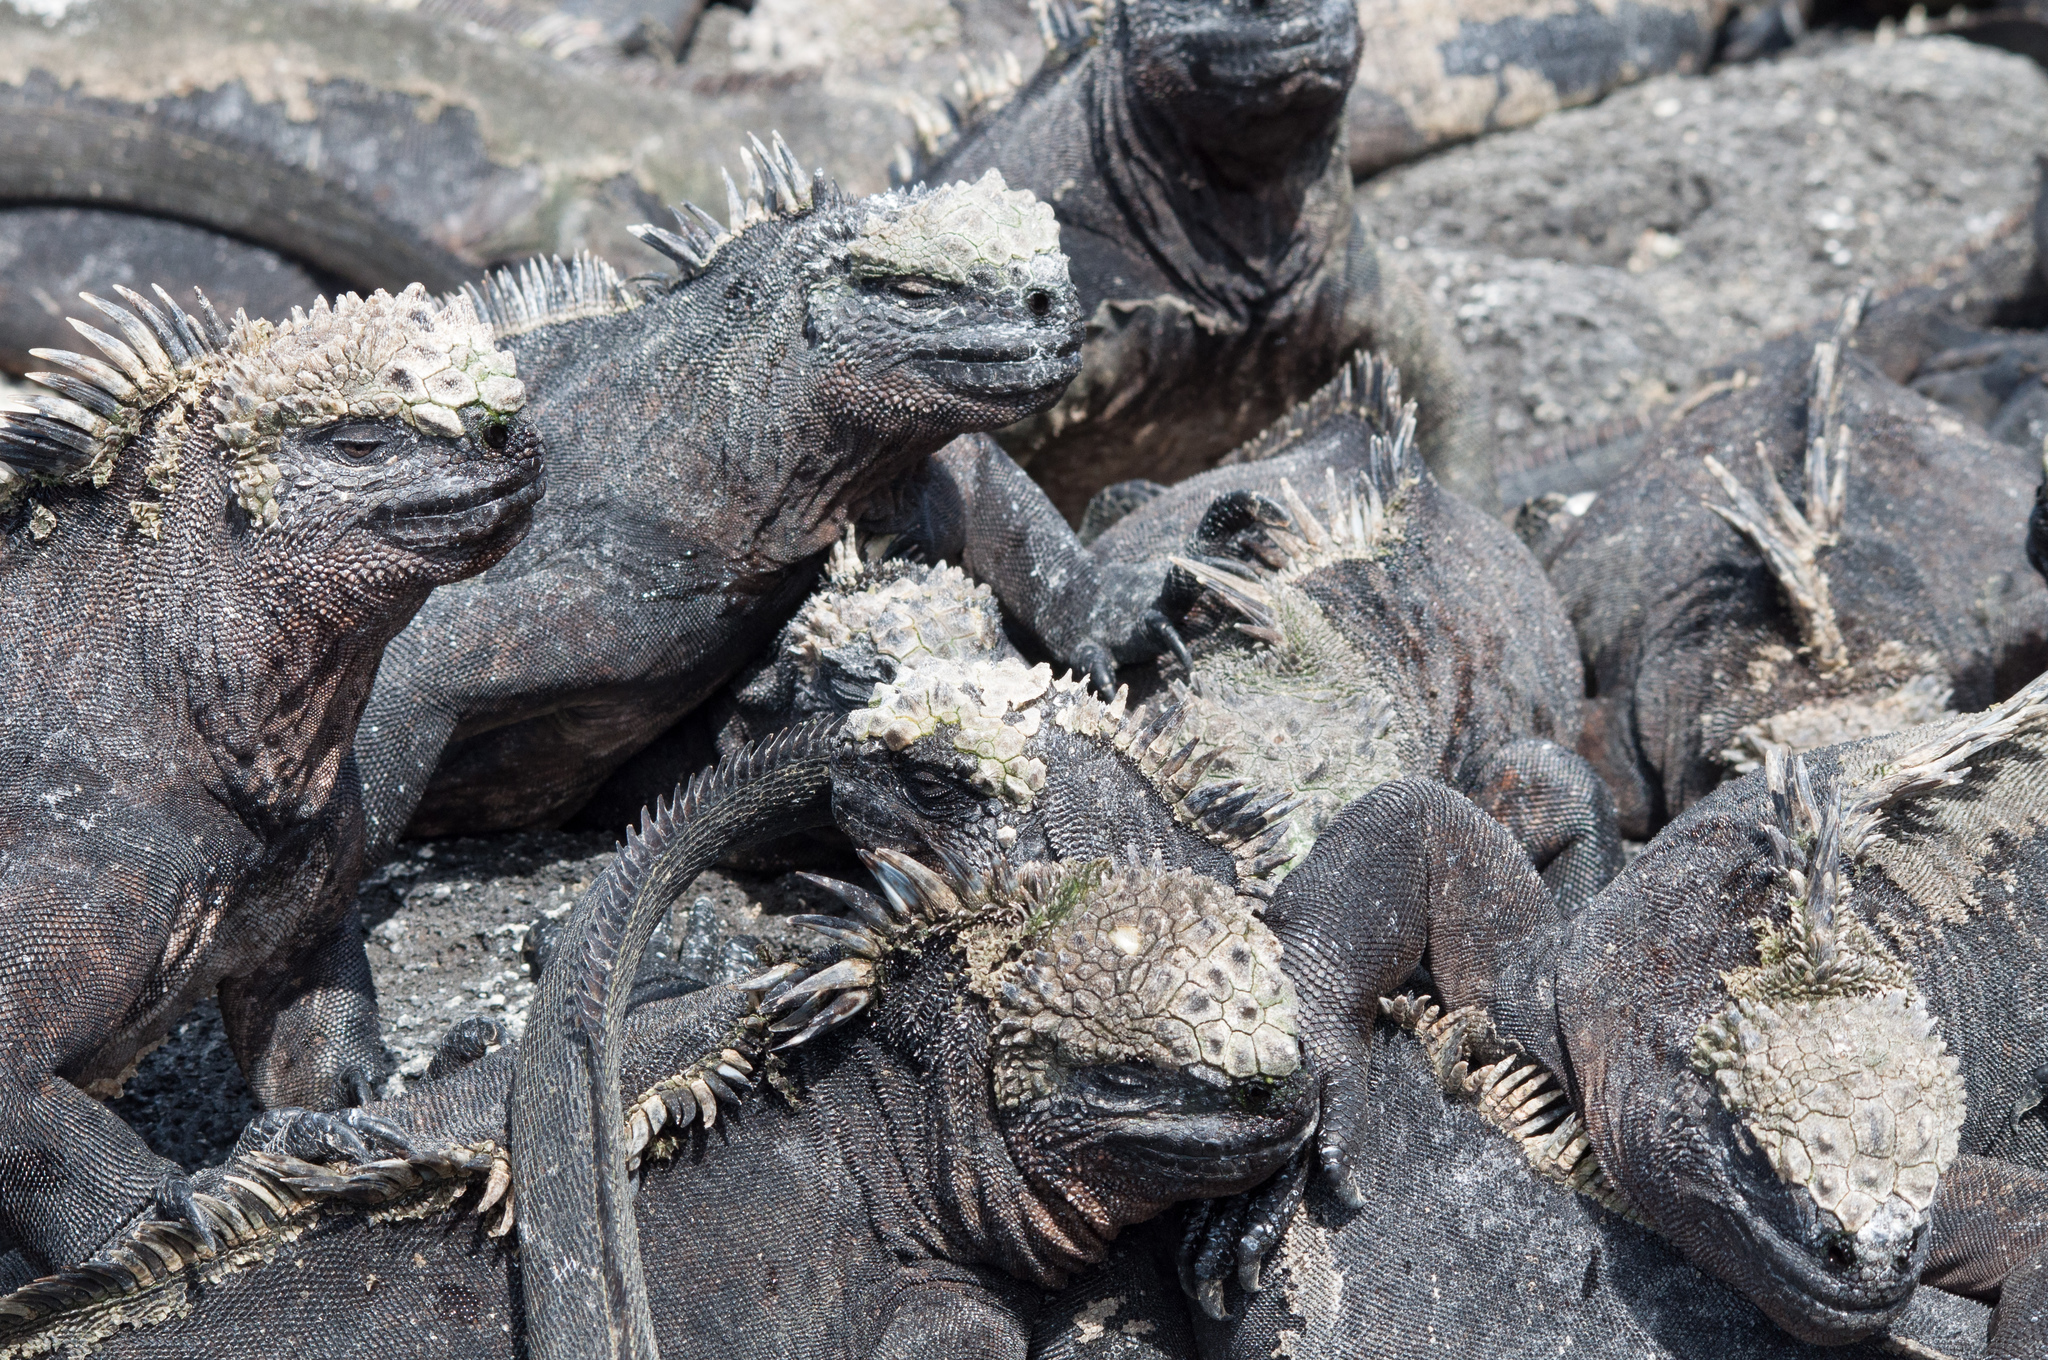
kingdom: Animalia
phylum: Chordata
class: Squamata
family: Iguanidae
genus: Amblyrhynchus
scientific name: Amblyrhynchus cristatus
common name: Marine iguana
